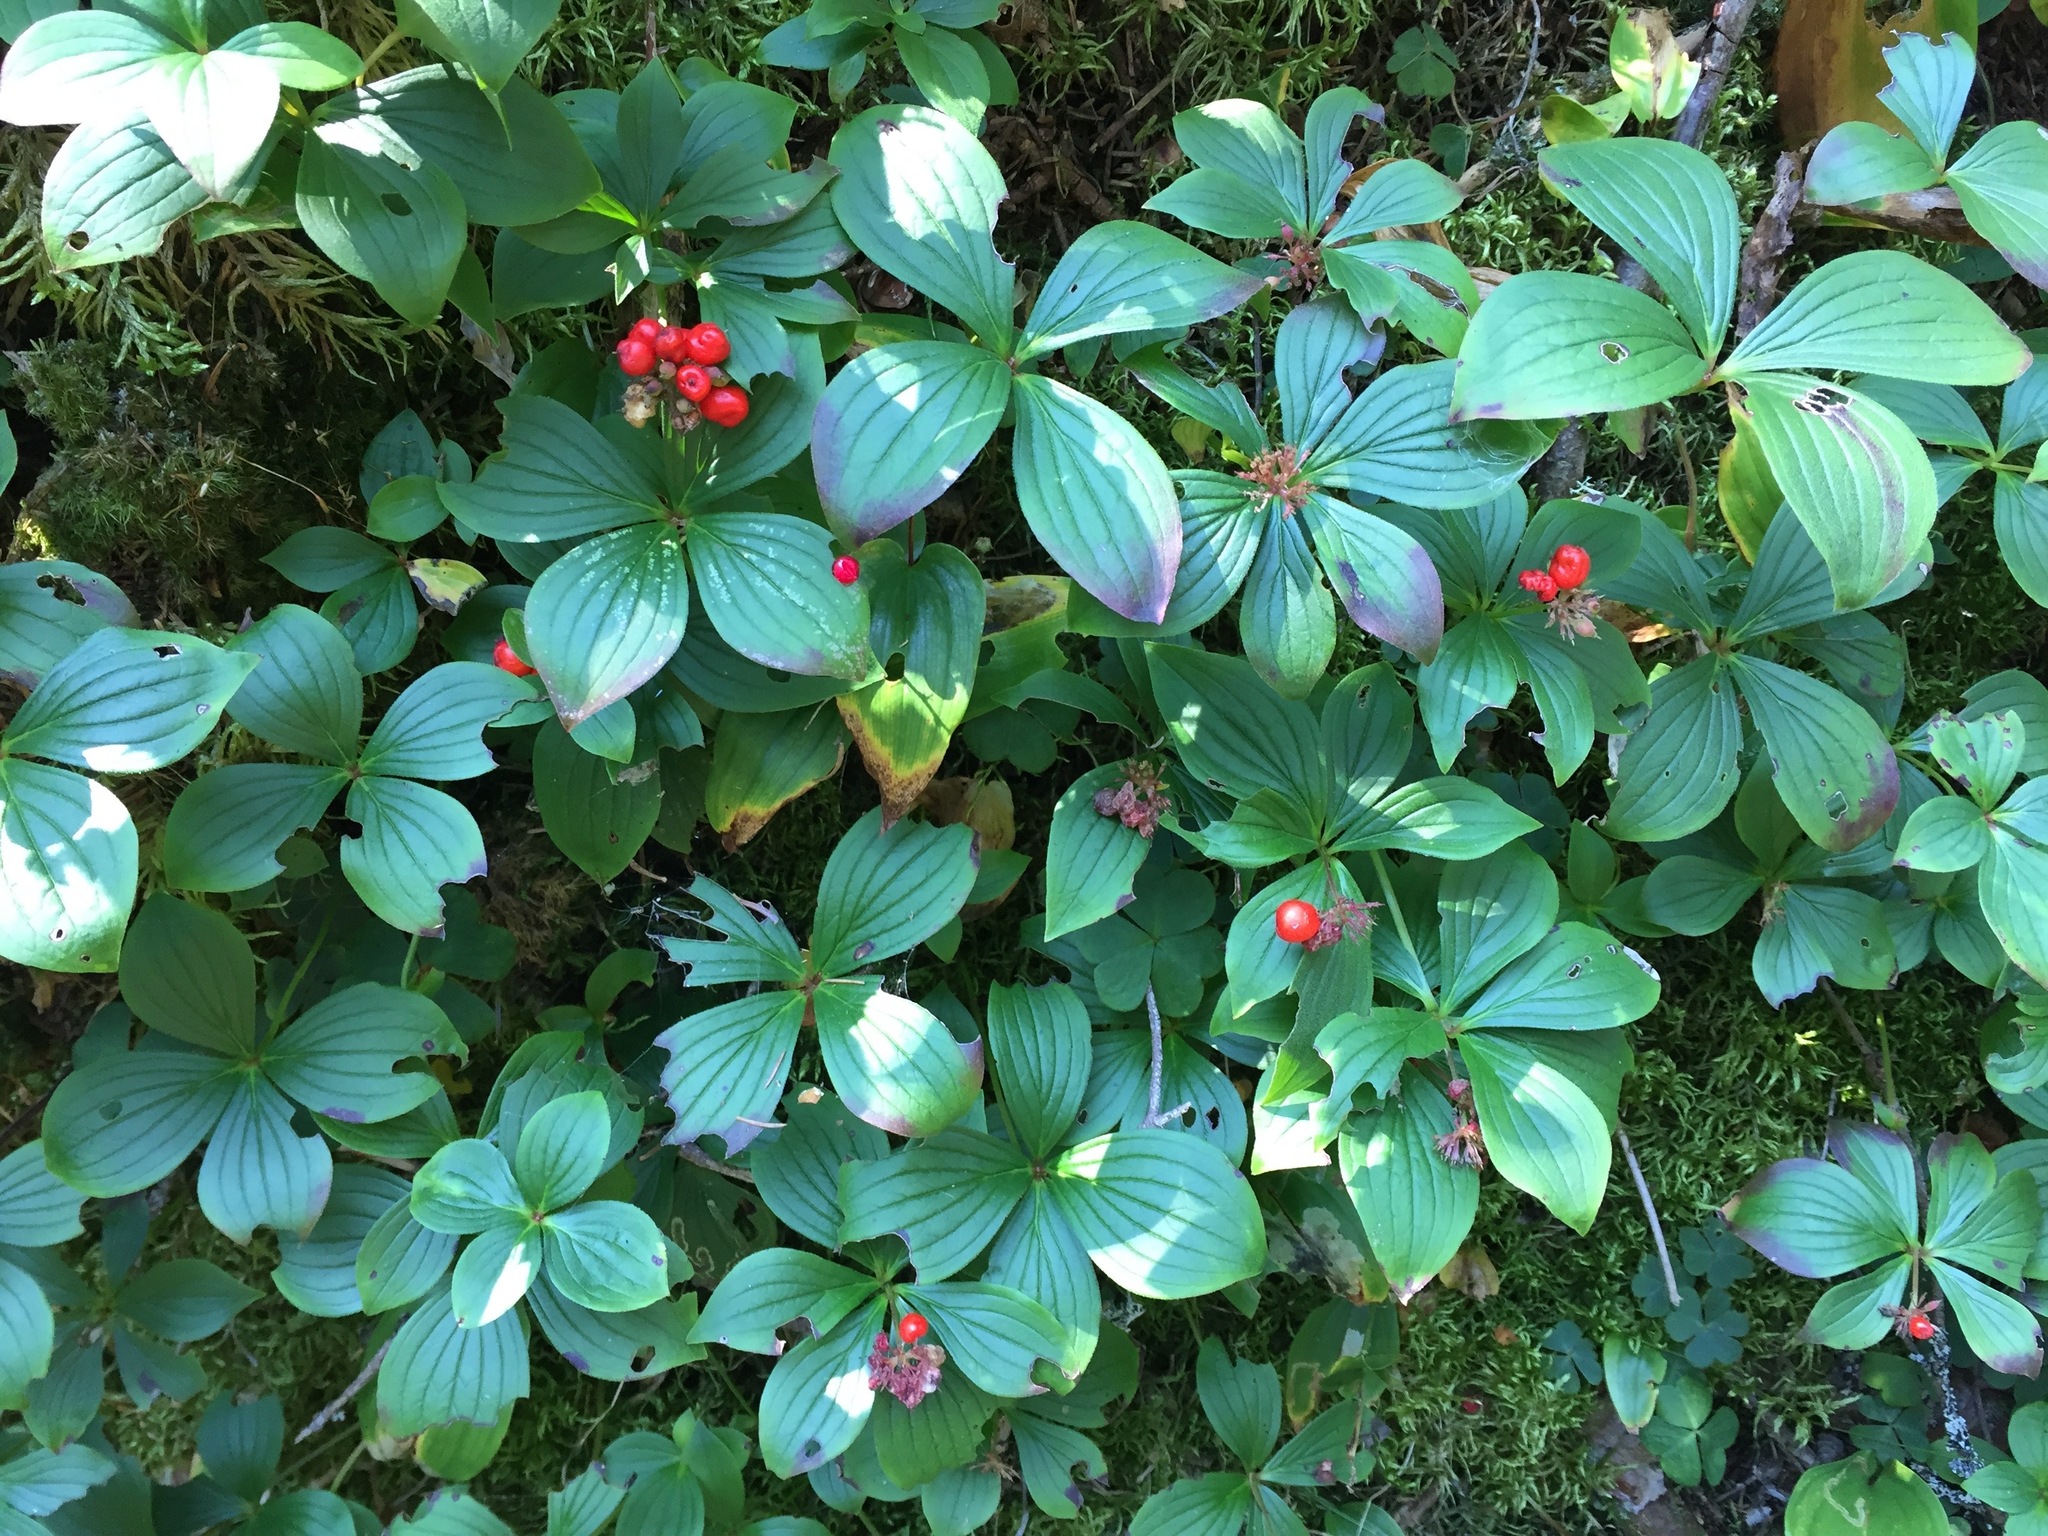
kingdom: Plantae
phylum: Tracheophyta
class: Magnoliopsida
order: Cornales
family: Cornaceae
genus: Cornus
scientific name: Cornus canadensis
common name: Creeping dogwood
